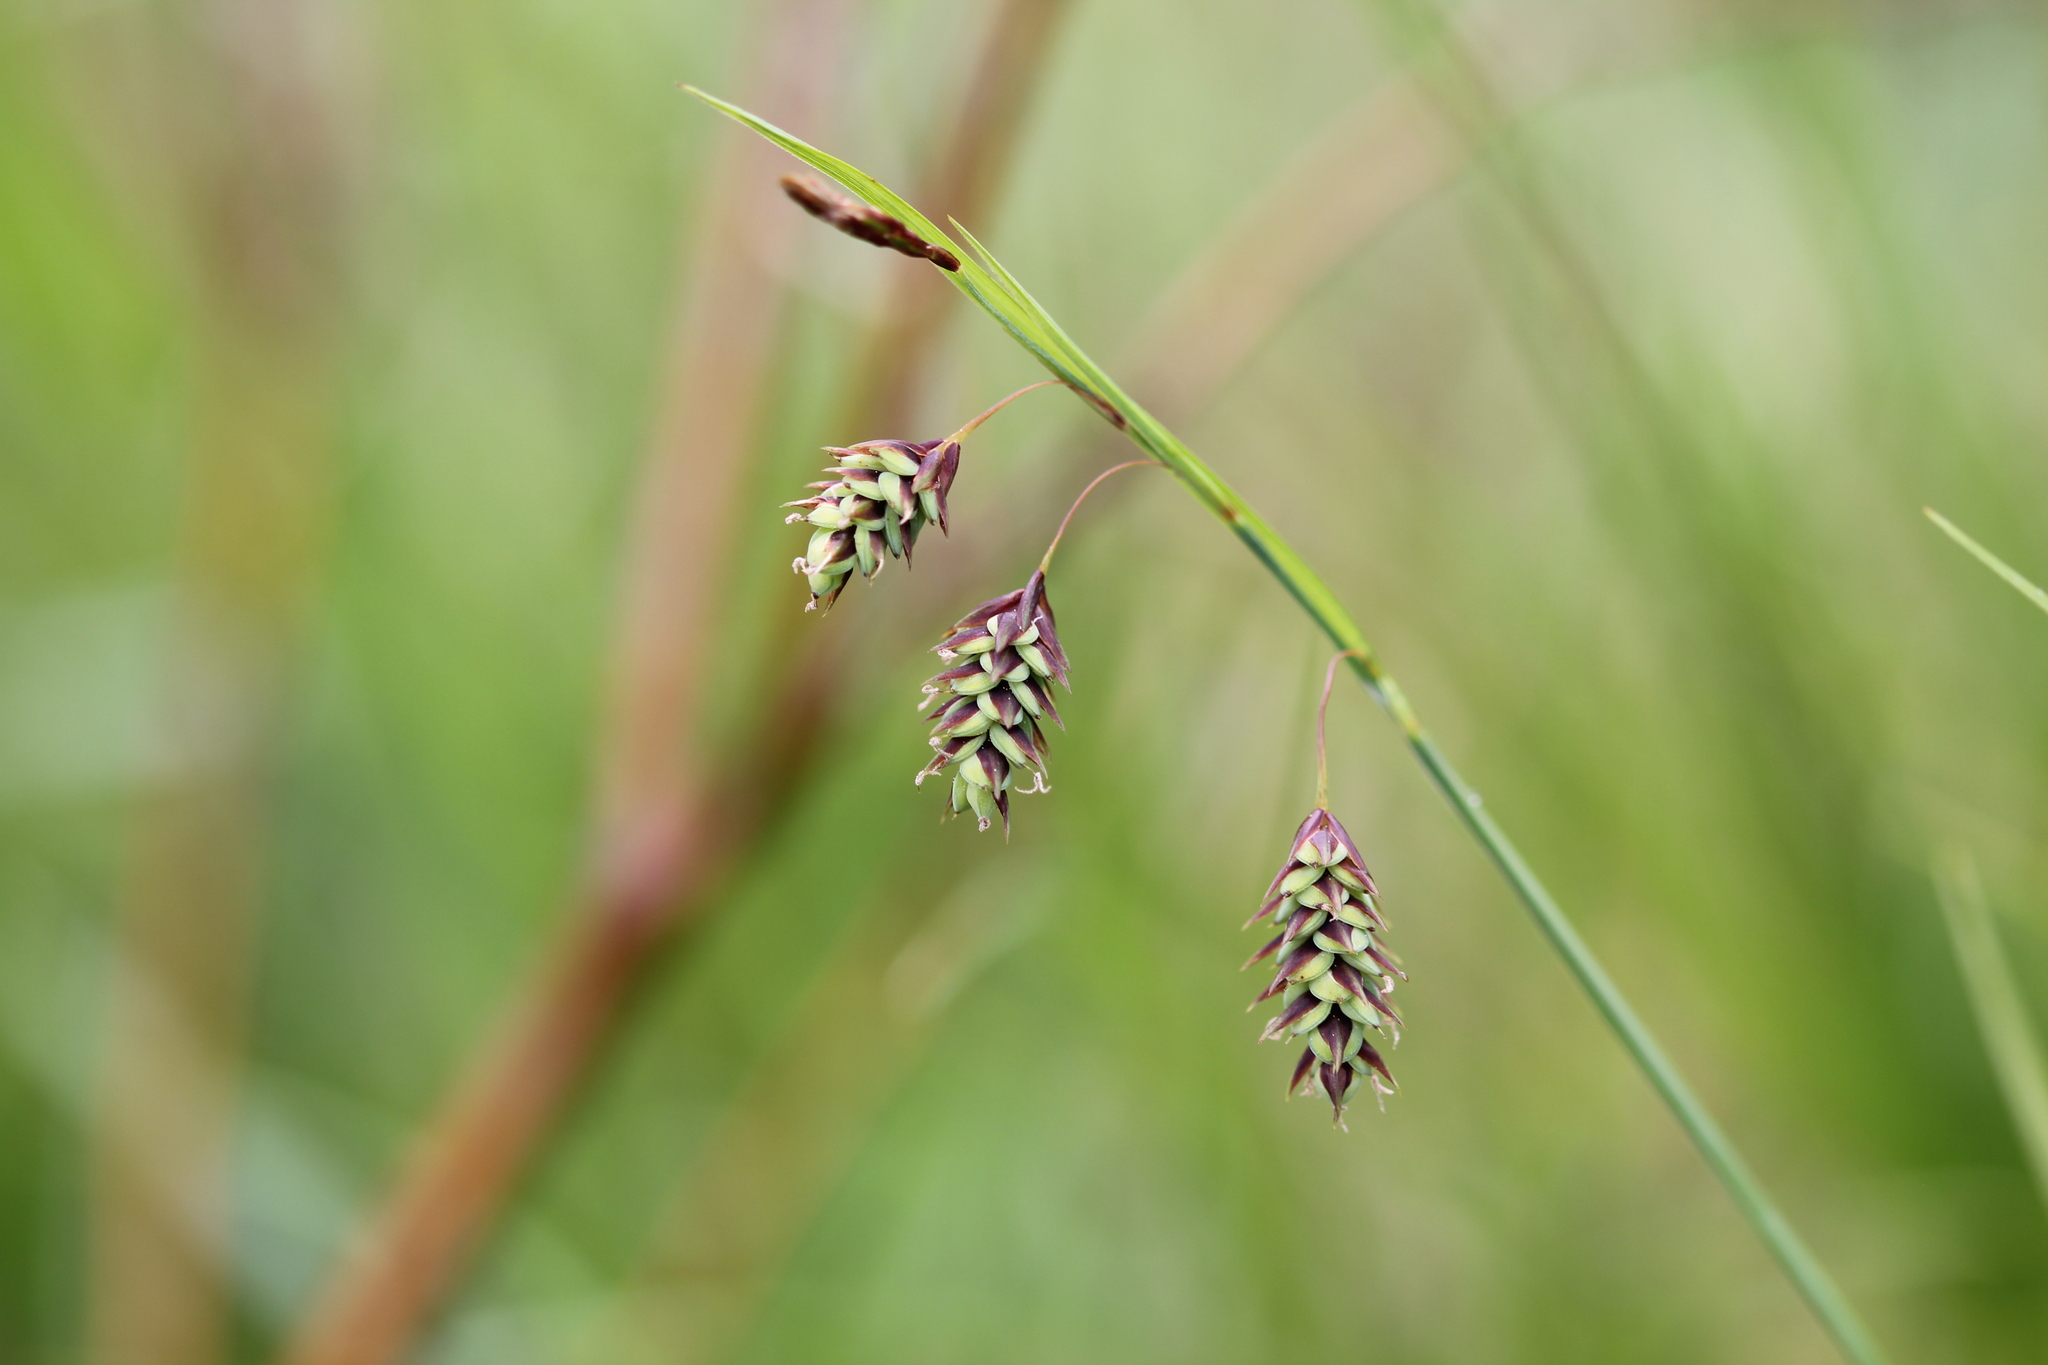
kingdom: Plantae
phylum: Tracheophyta
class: Liliopsida
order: Poales
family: Cyperaceae
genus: Carex
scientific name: Carex magellanica
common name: Bog sedge
